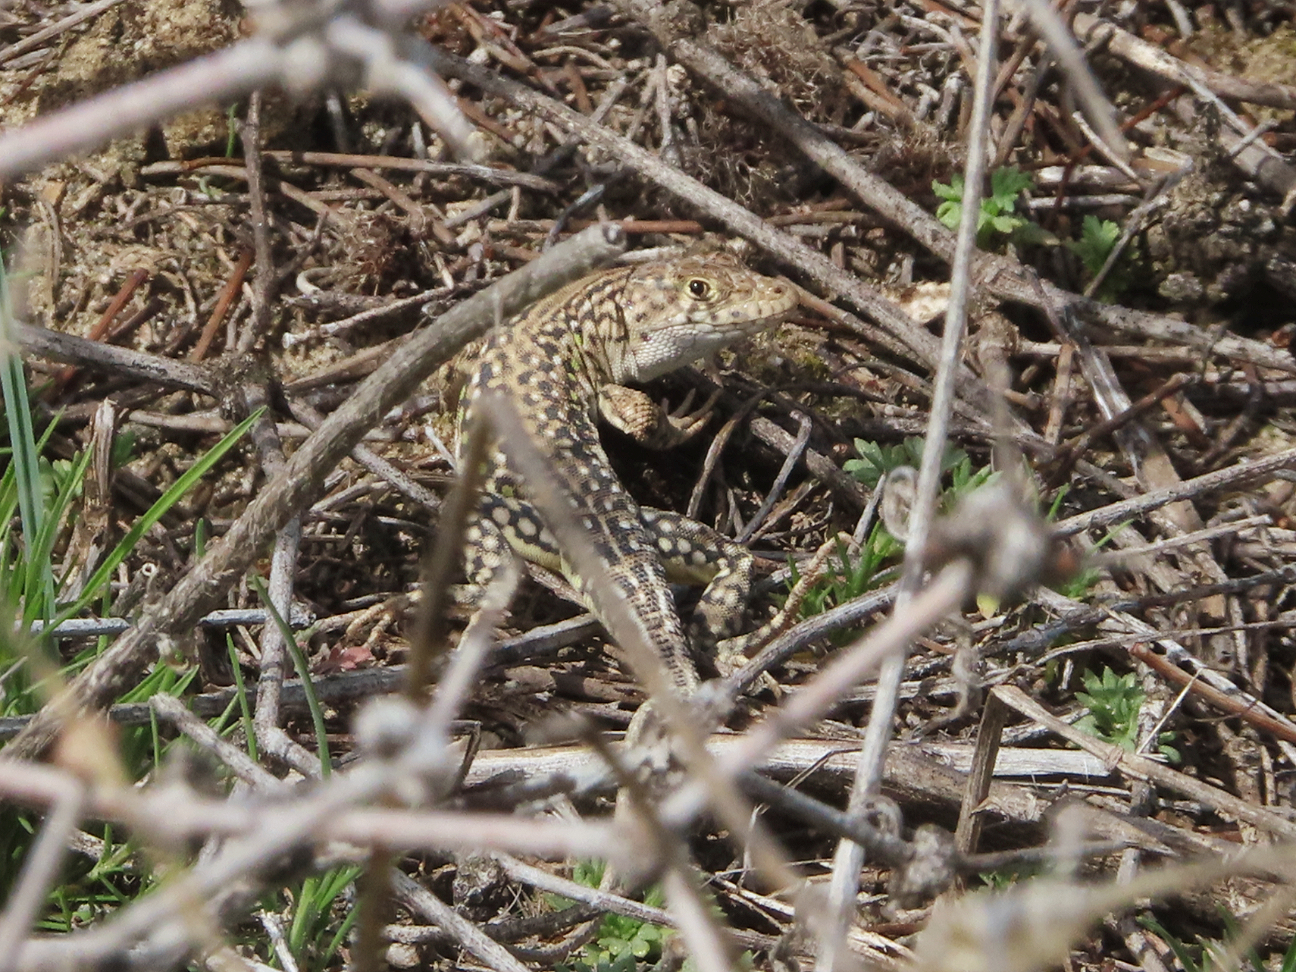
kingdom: Animalia
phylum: Chordata
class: Squamata
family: Lacertidae
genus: Eremias
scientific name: Eremias strauchi
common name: Strauch's racerunner
